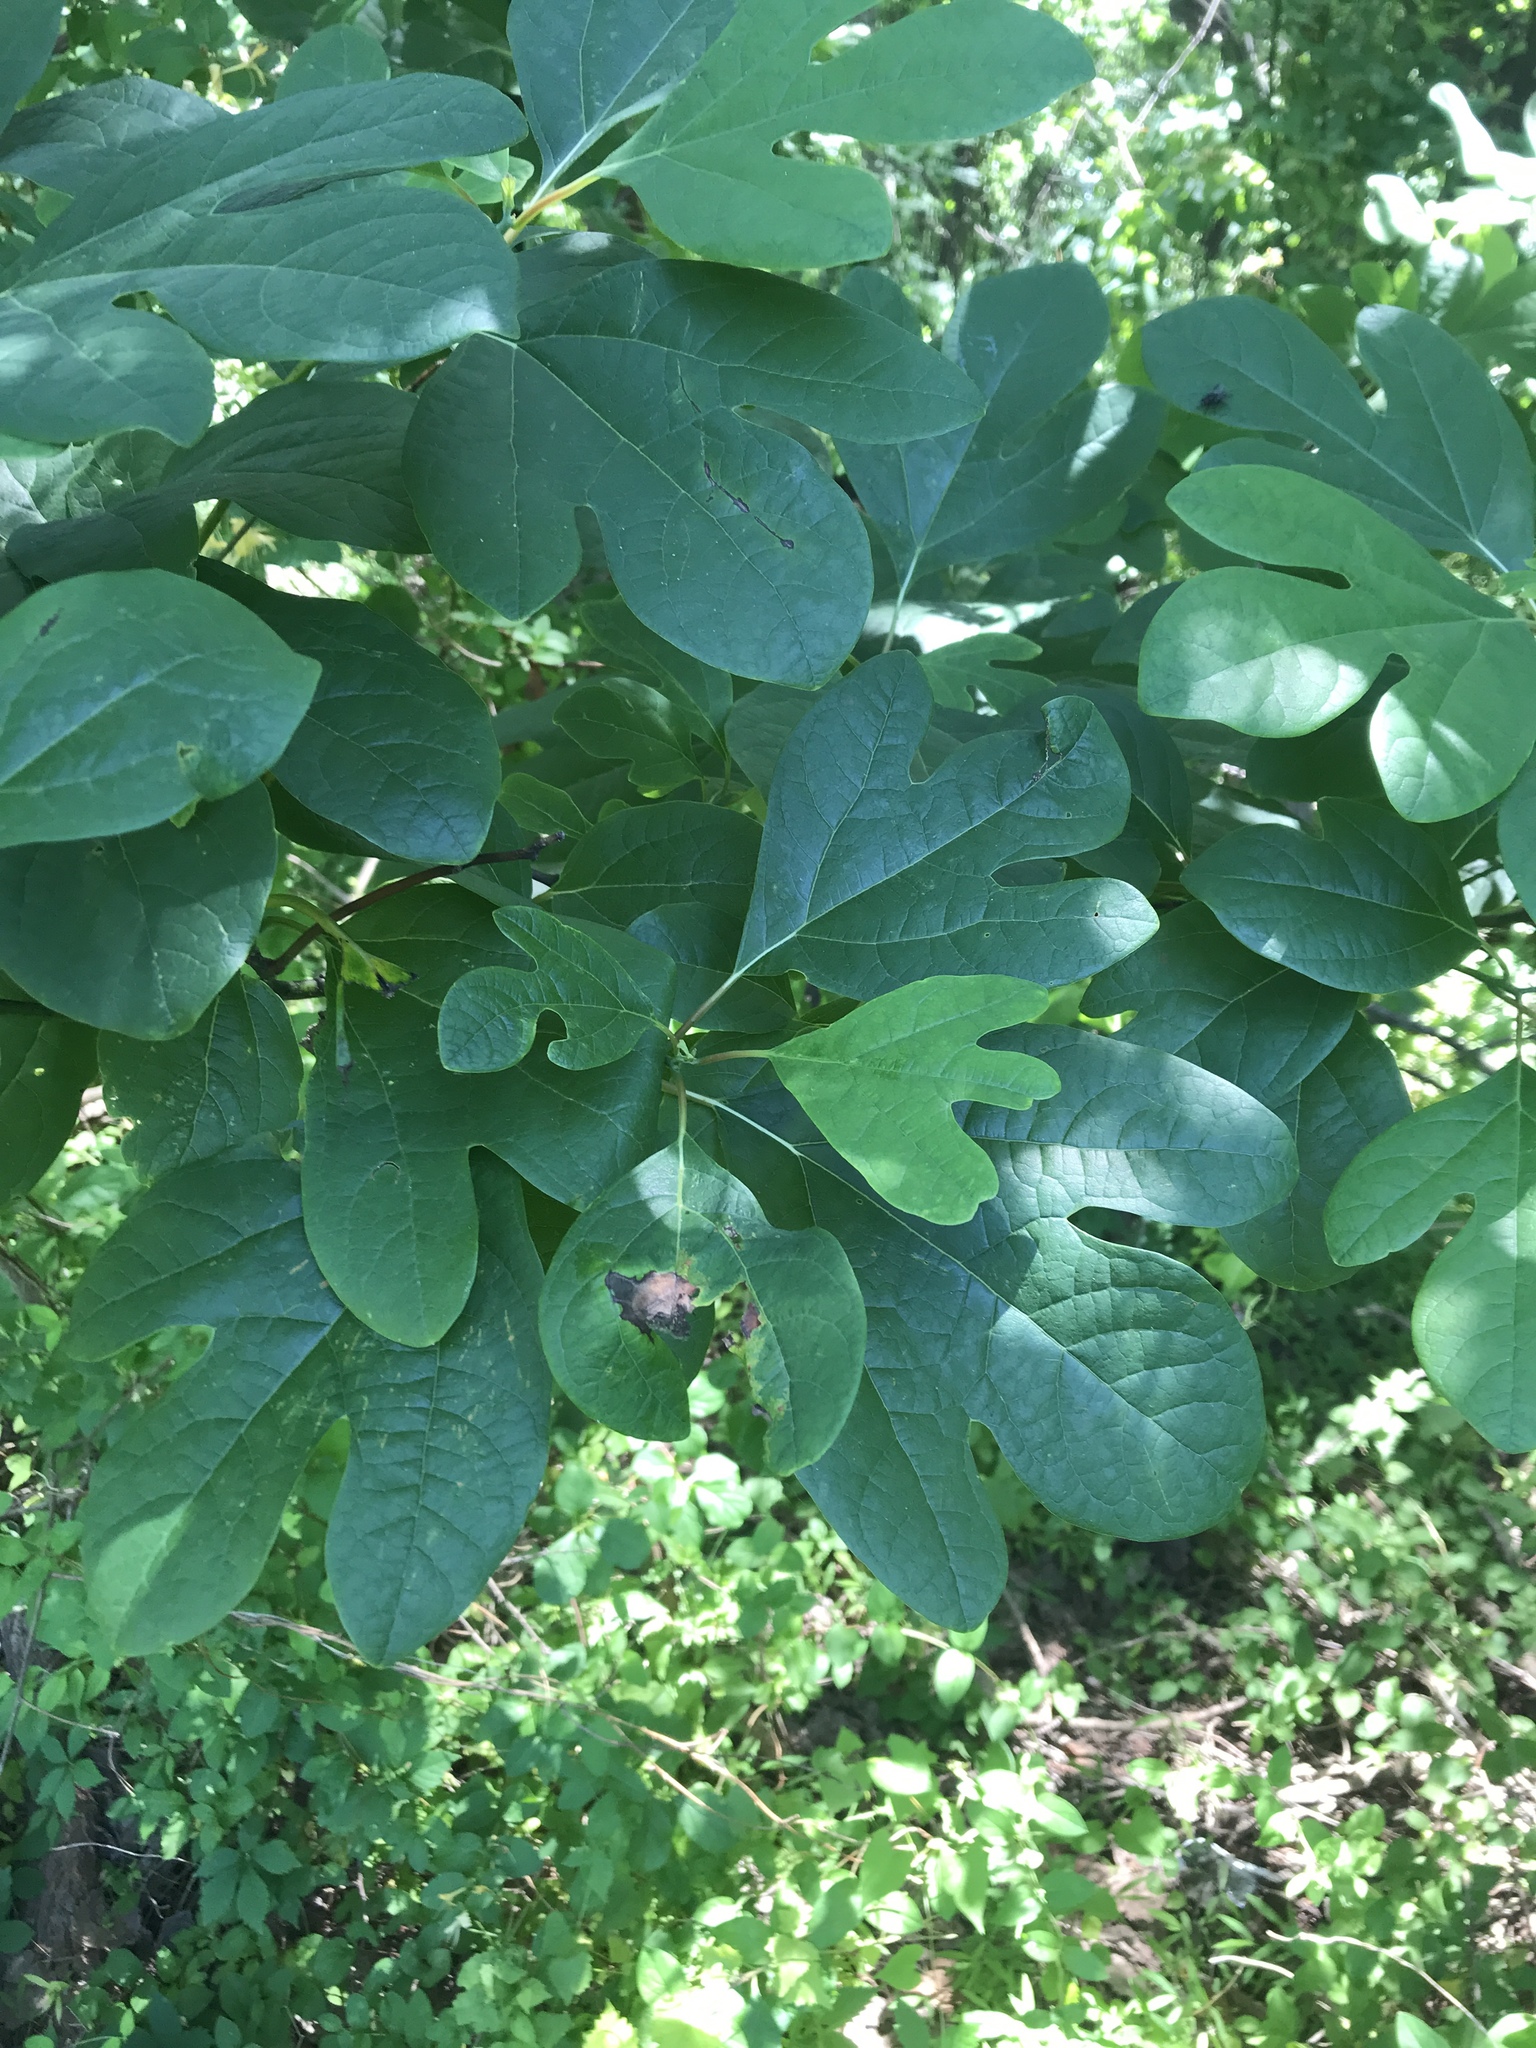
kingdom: Plantae
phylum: Tracheophyta
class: Magnoliopsida
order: Laurales
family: Lauraceae
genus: Sassafras
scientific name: Sassafras albidum
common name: Sassafras
